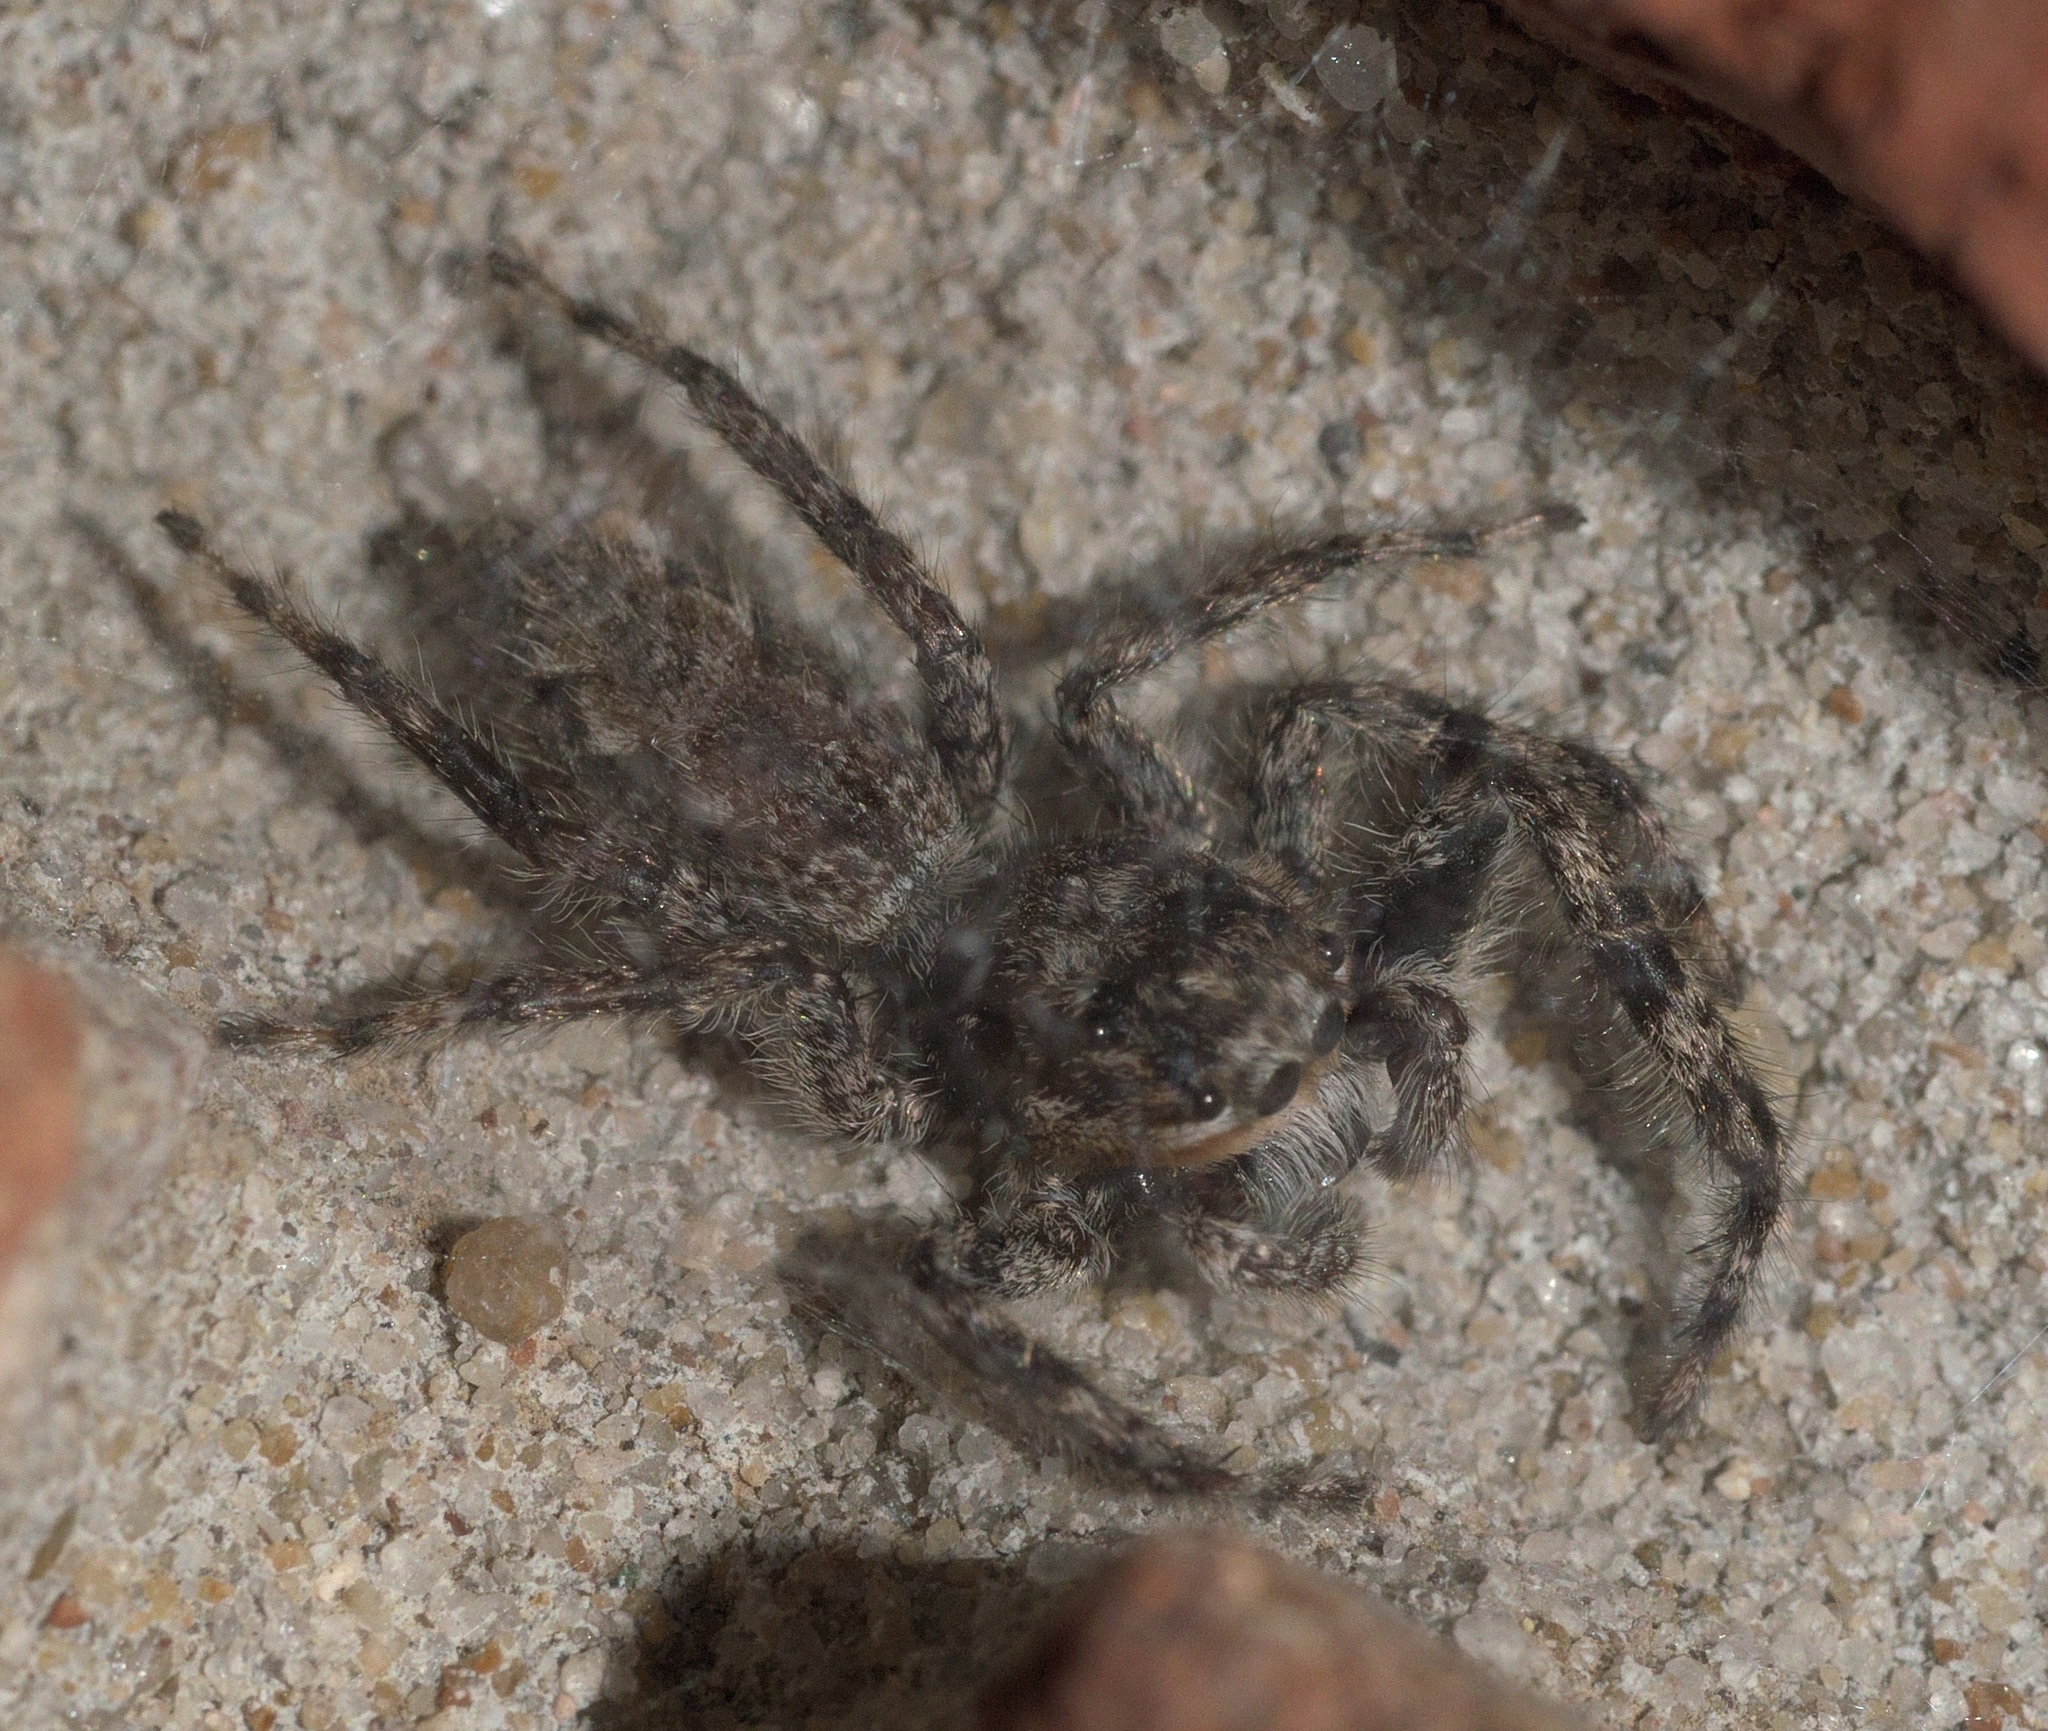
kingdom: Animalia
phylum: Arthropoda
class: Arachnida
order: Araneae
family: Salticidae
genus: Platycryptus
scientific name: Platycryptus undatus
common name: Tan jumping spider
